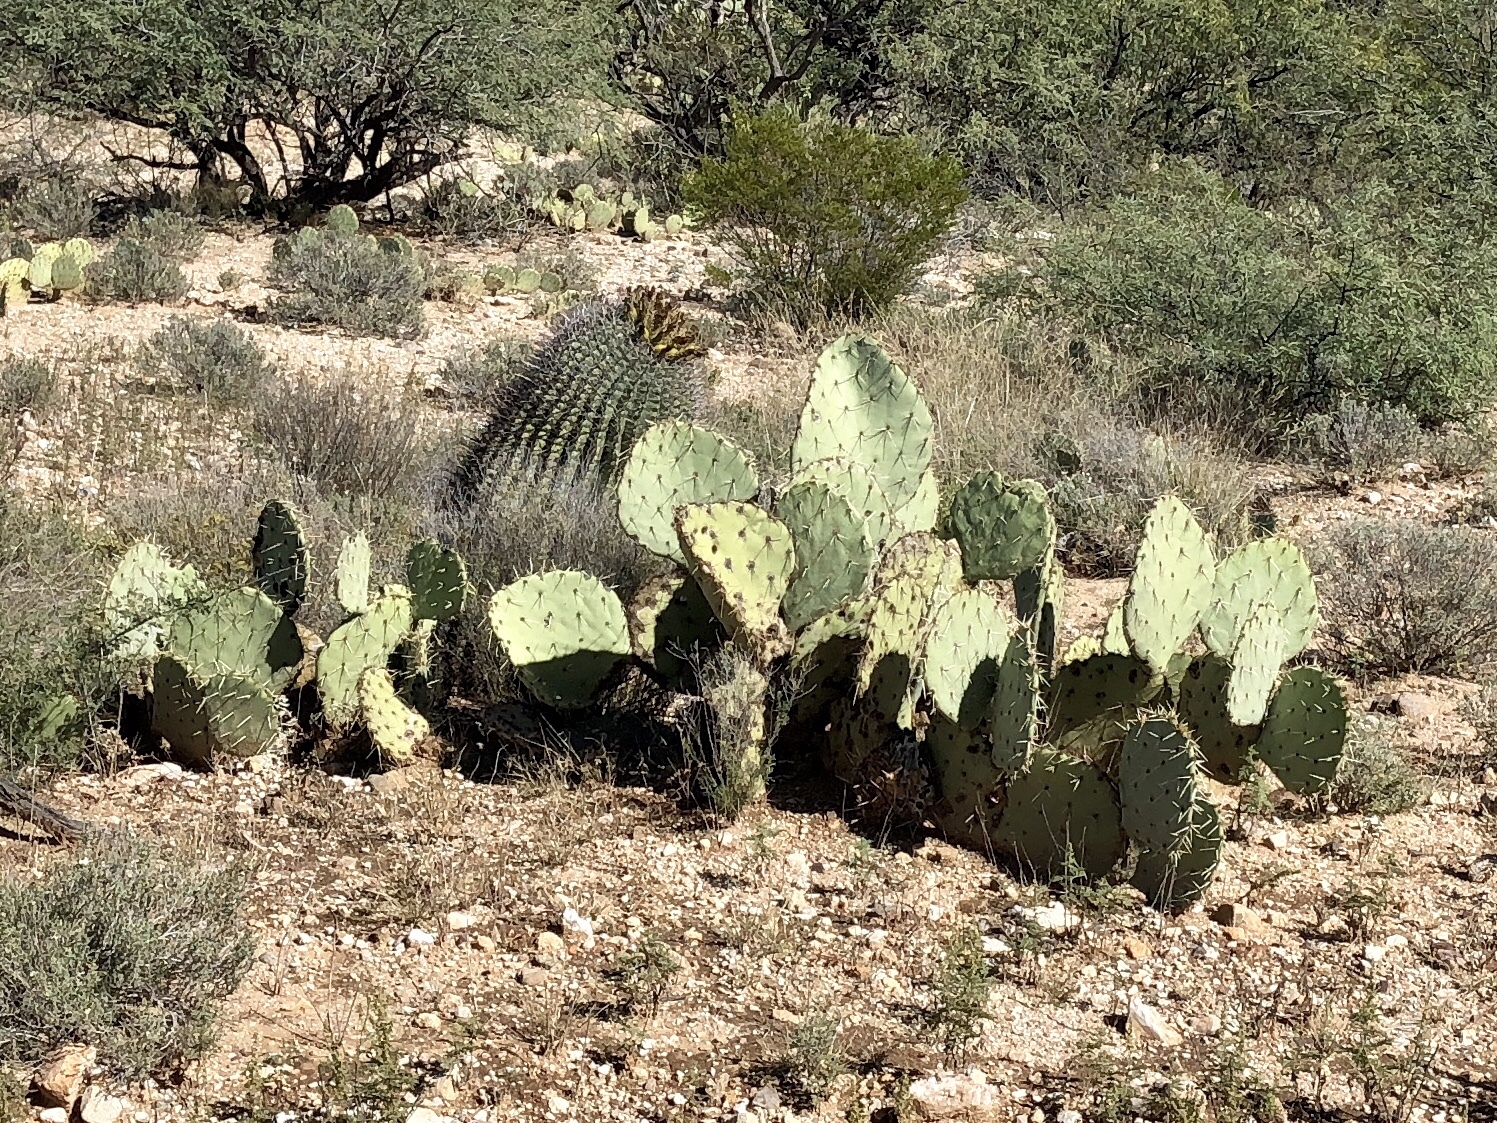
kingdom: Plantae
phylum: Tracheophyta
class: Magnoliopsida
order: Caryophyllales
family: Cactaceae
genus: Opuntia
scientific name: Opuntia engelmannii
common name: Cactus-apple
